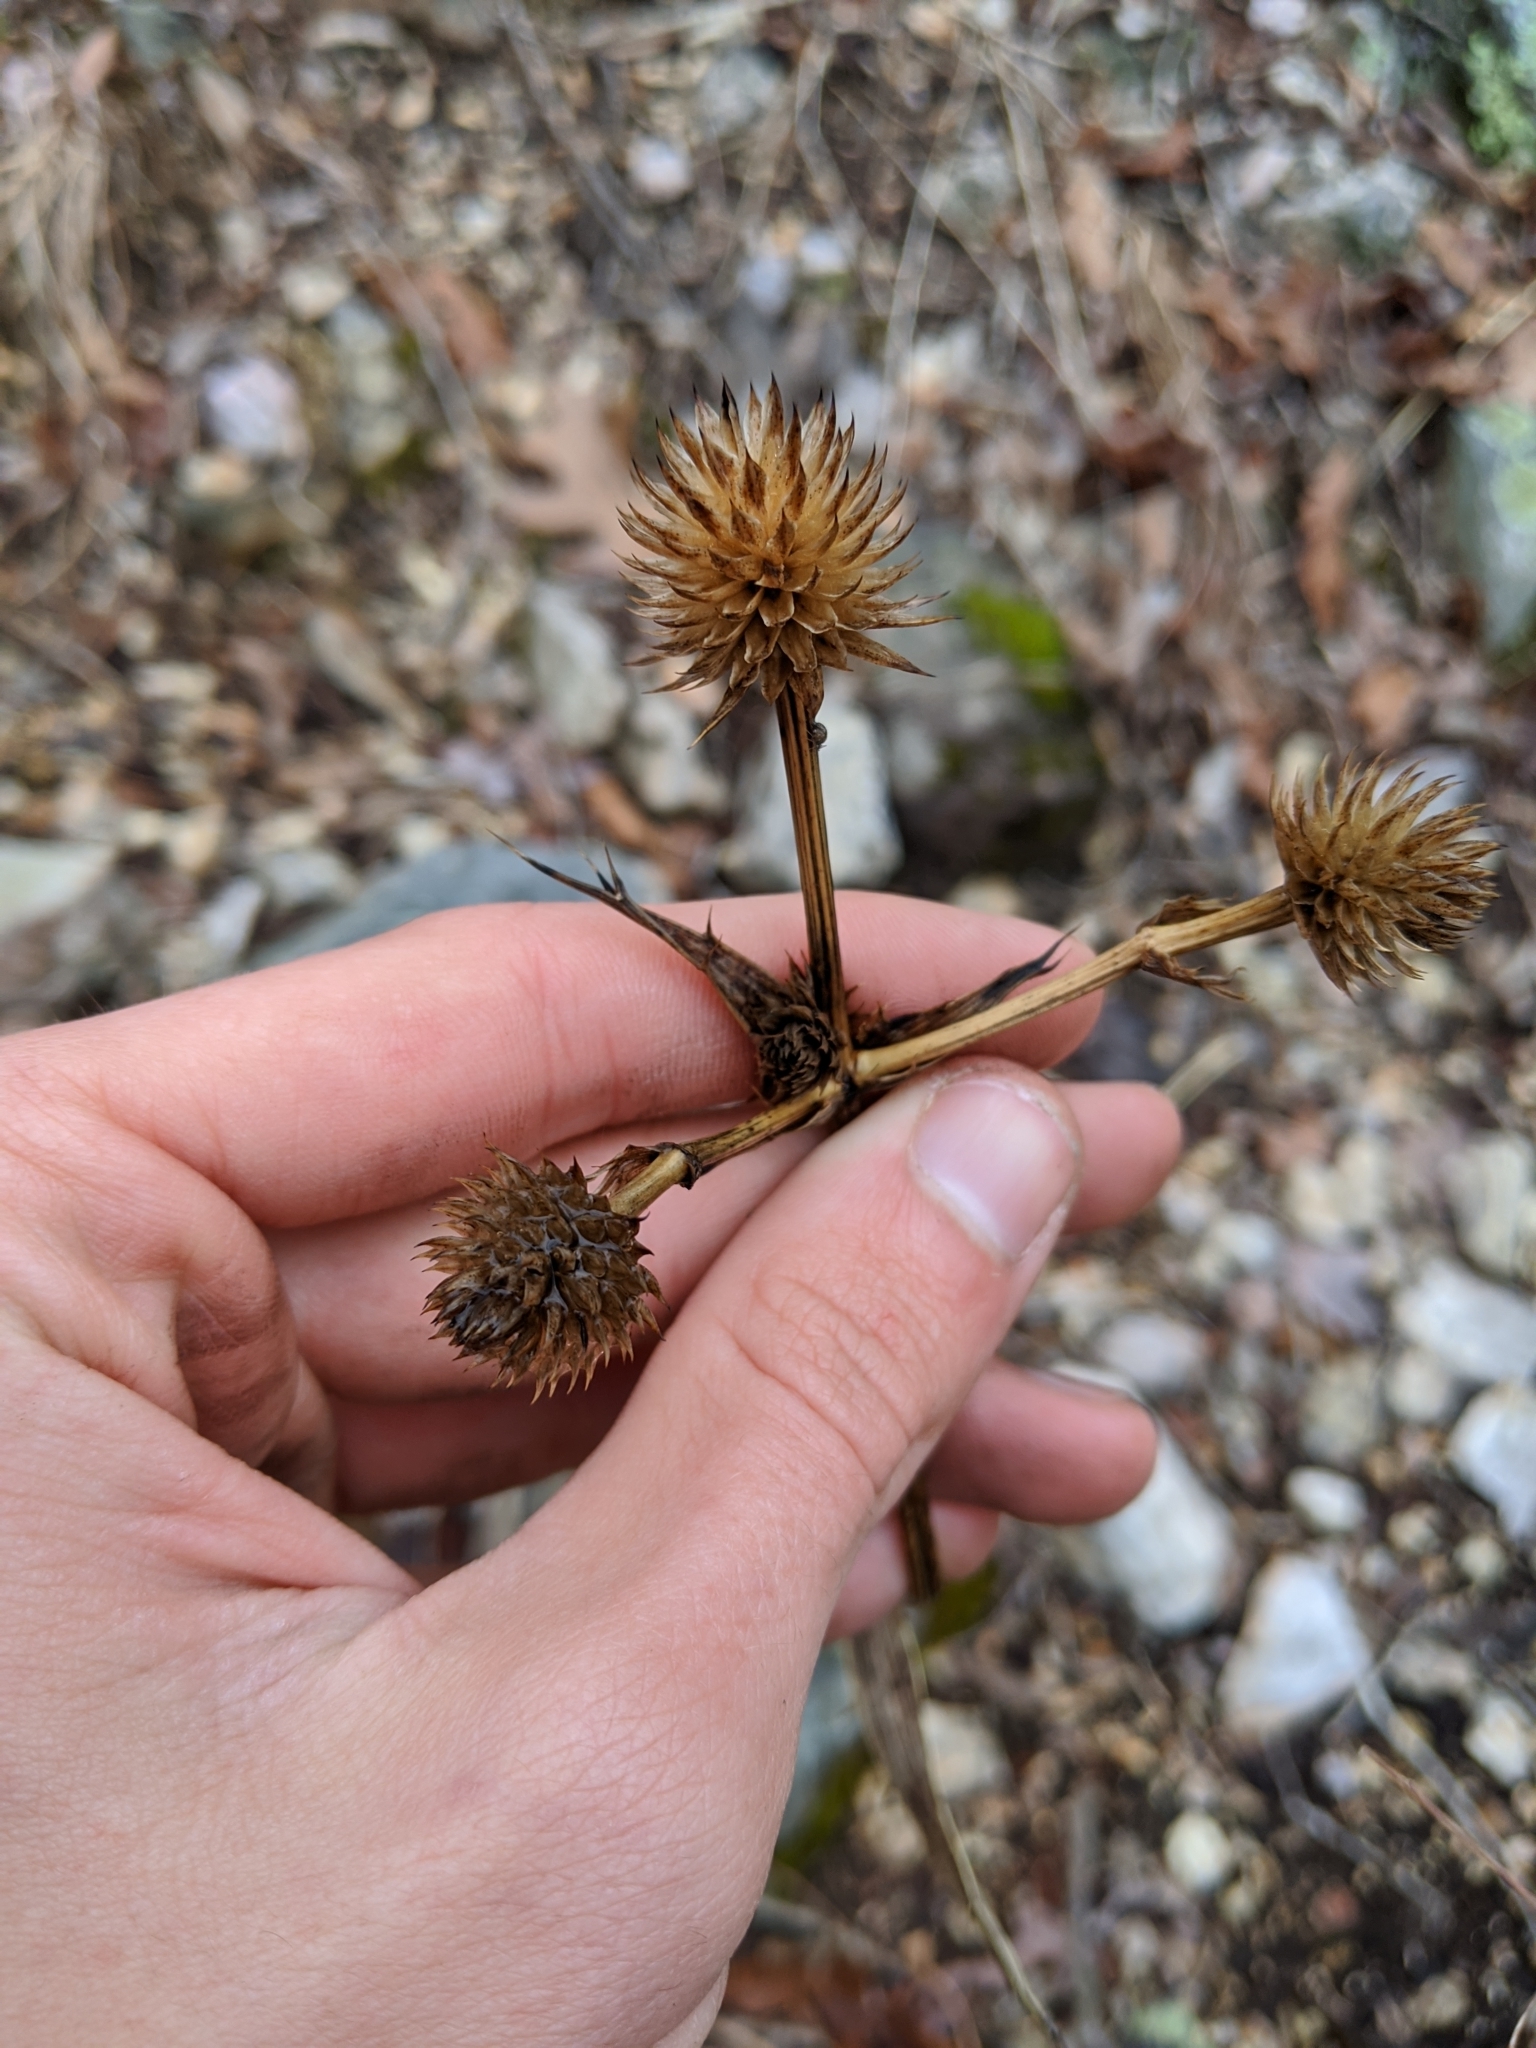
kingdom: Plantae
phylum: Tracheophyta
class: Magnoliopsida
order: Apiales
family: Apiaceae
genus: Eryngium
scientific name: Eryngium yuccifolium
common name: Button eryngo
